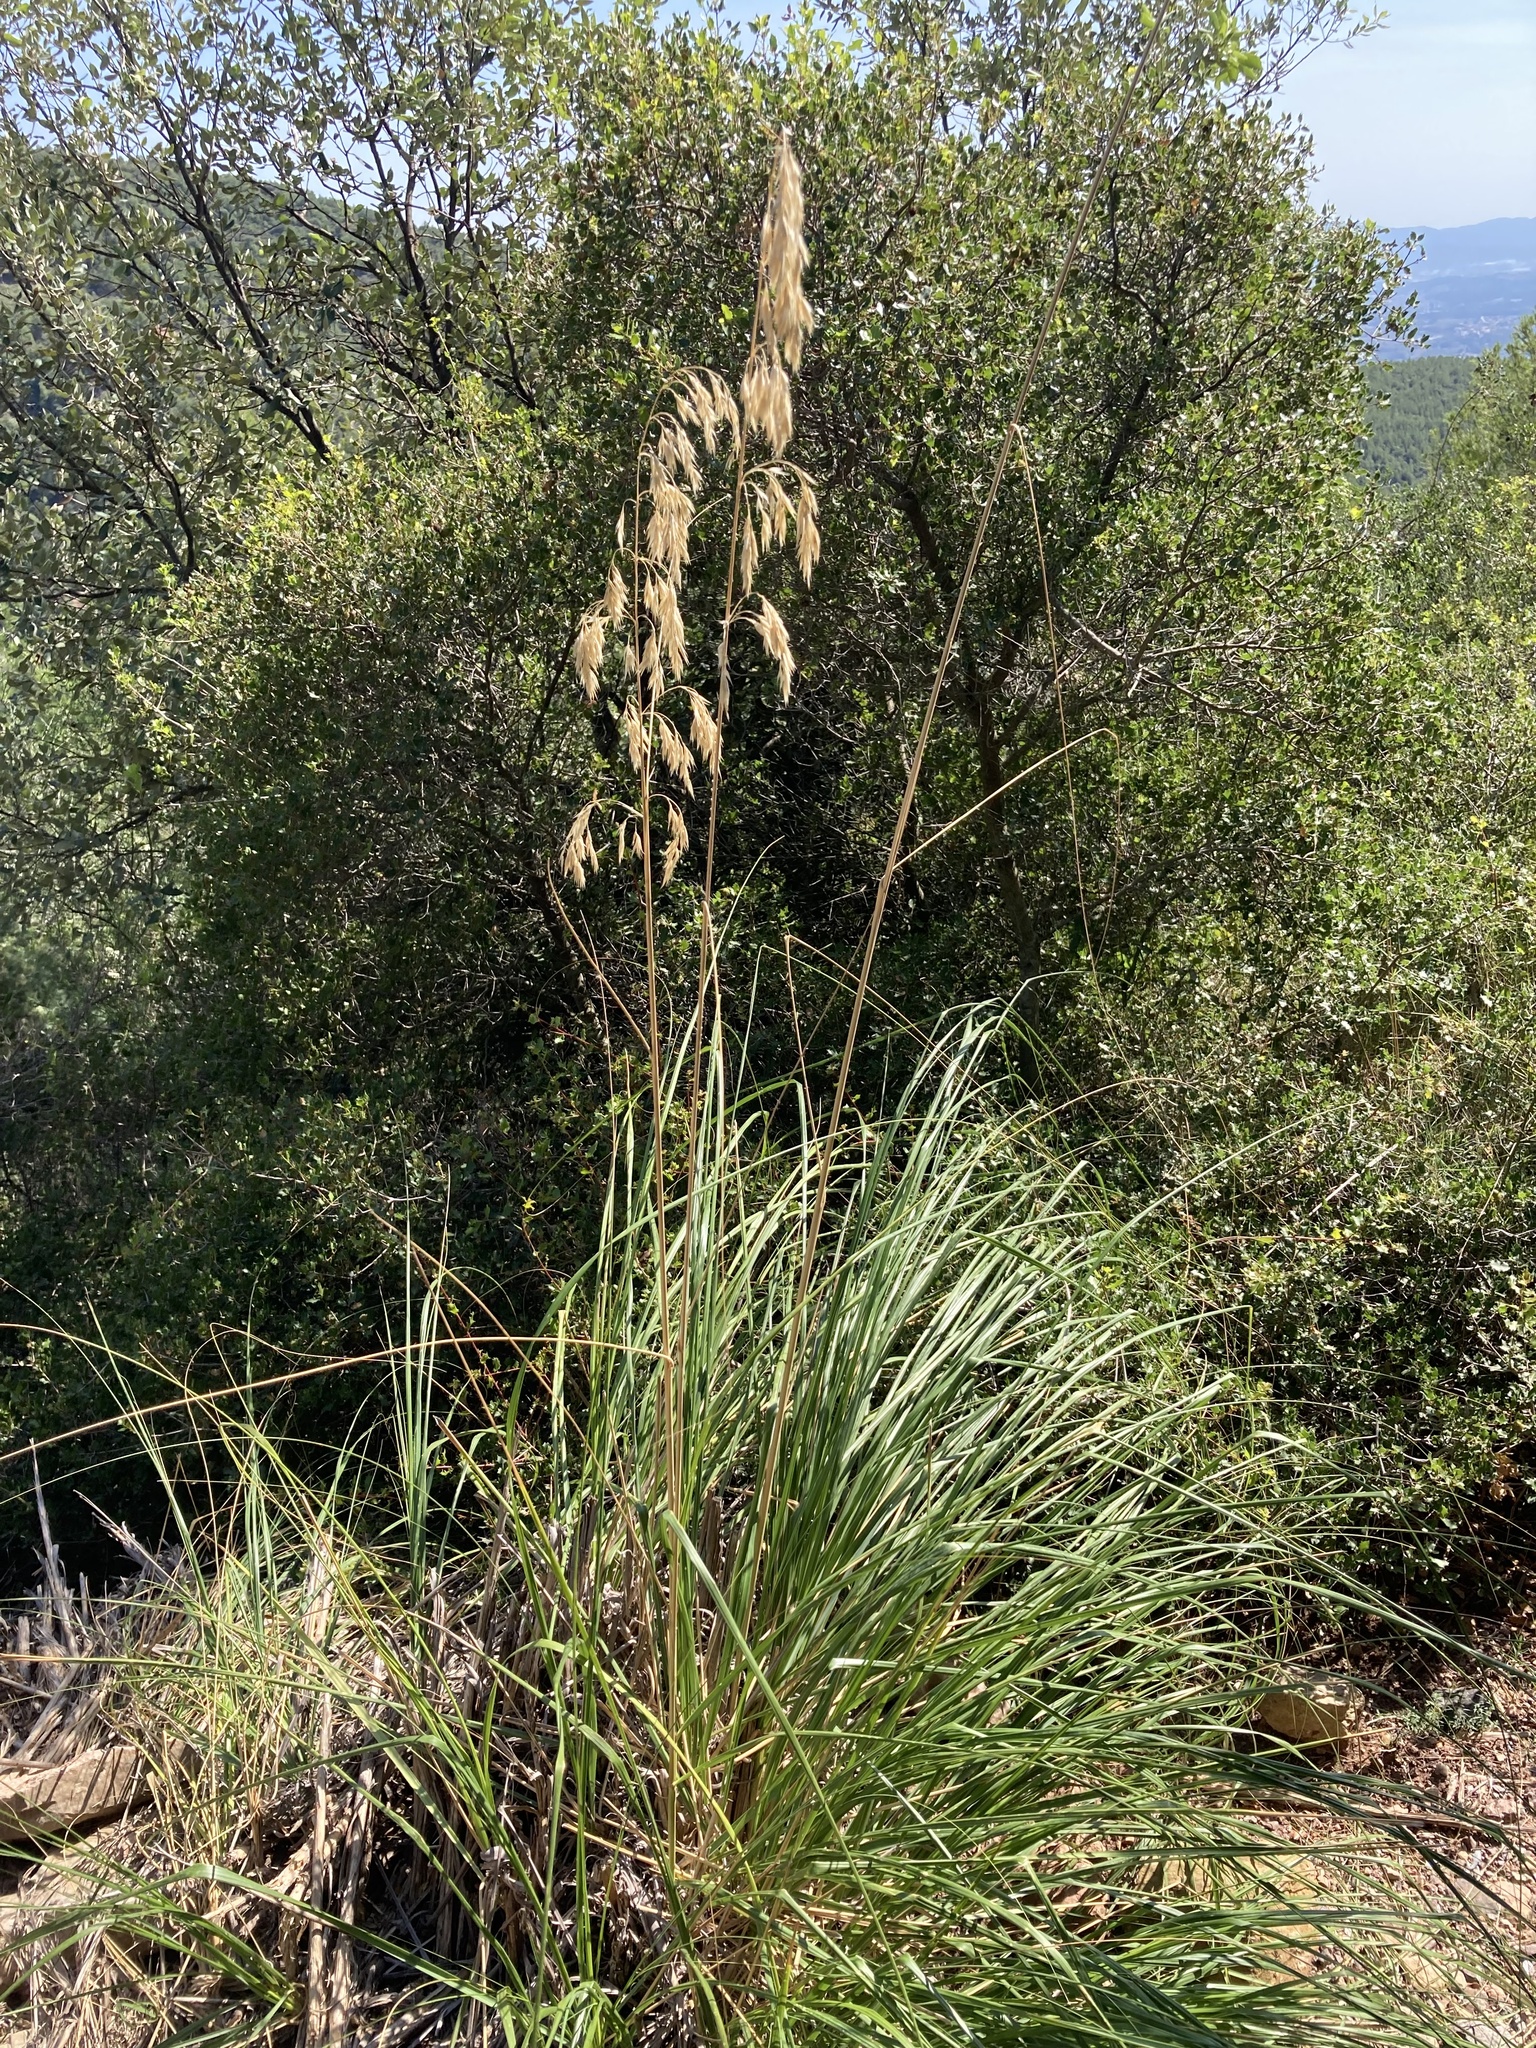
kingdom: Plantae
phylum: Tracheophyta
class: Liliopsida
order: Poales
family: Poaceae
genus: Ampelodesmos
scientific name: Ampelodesmos mauritanicus
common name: Mauritanian grass
